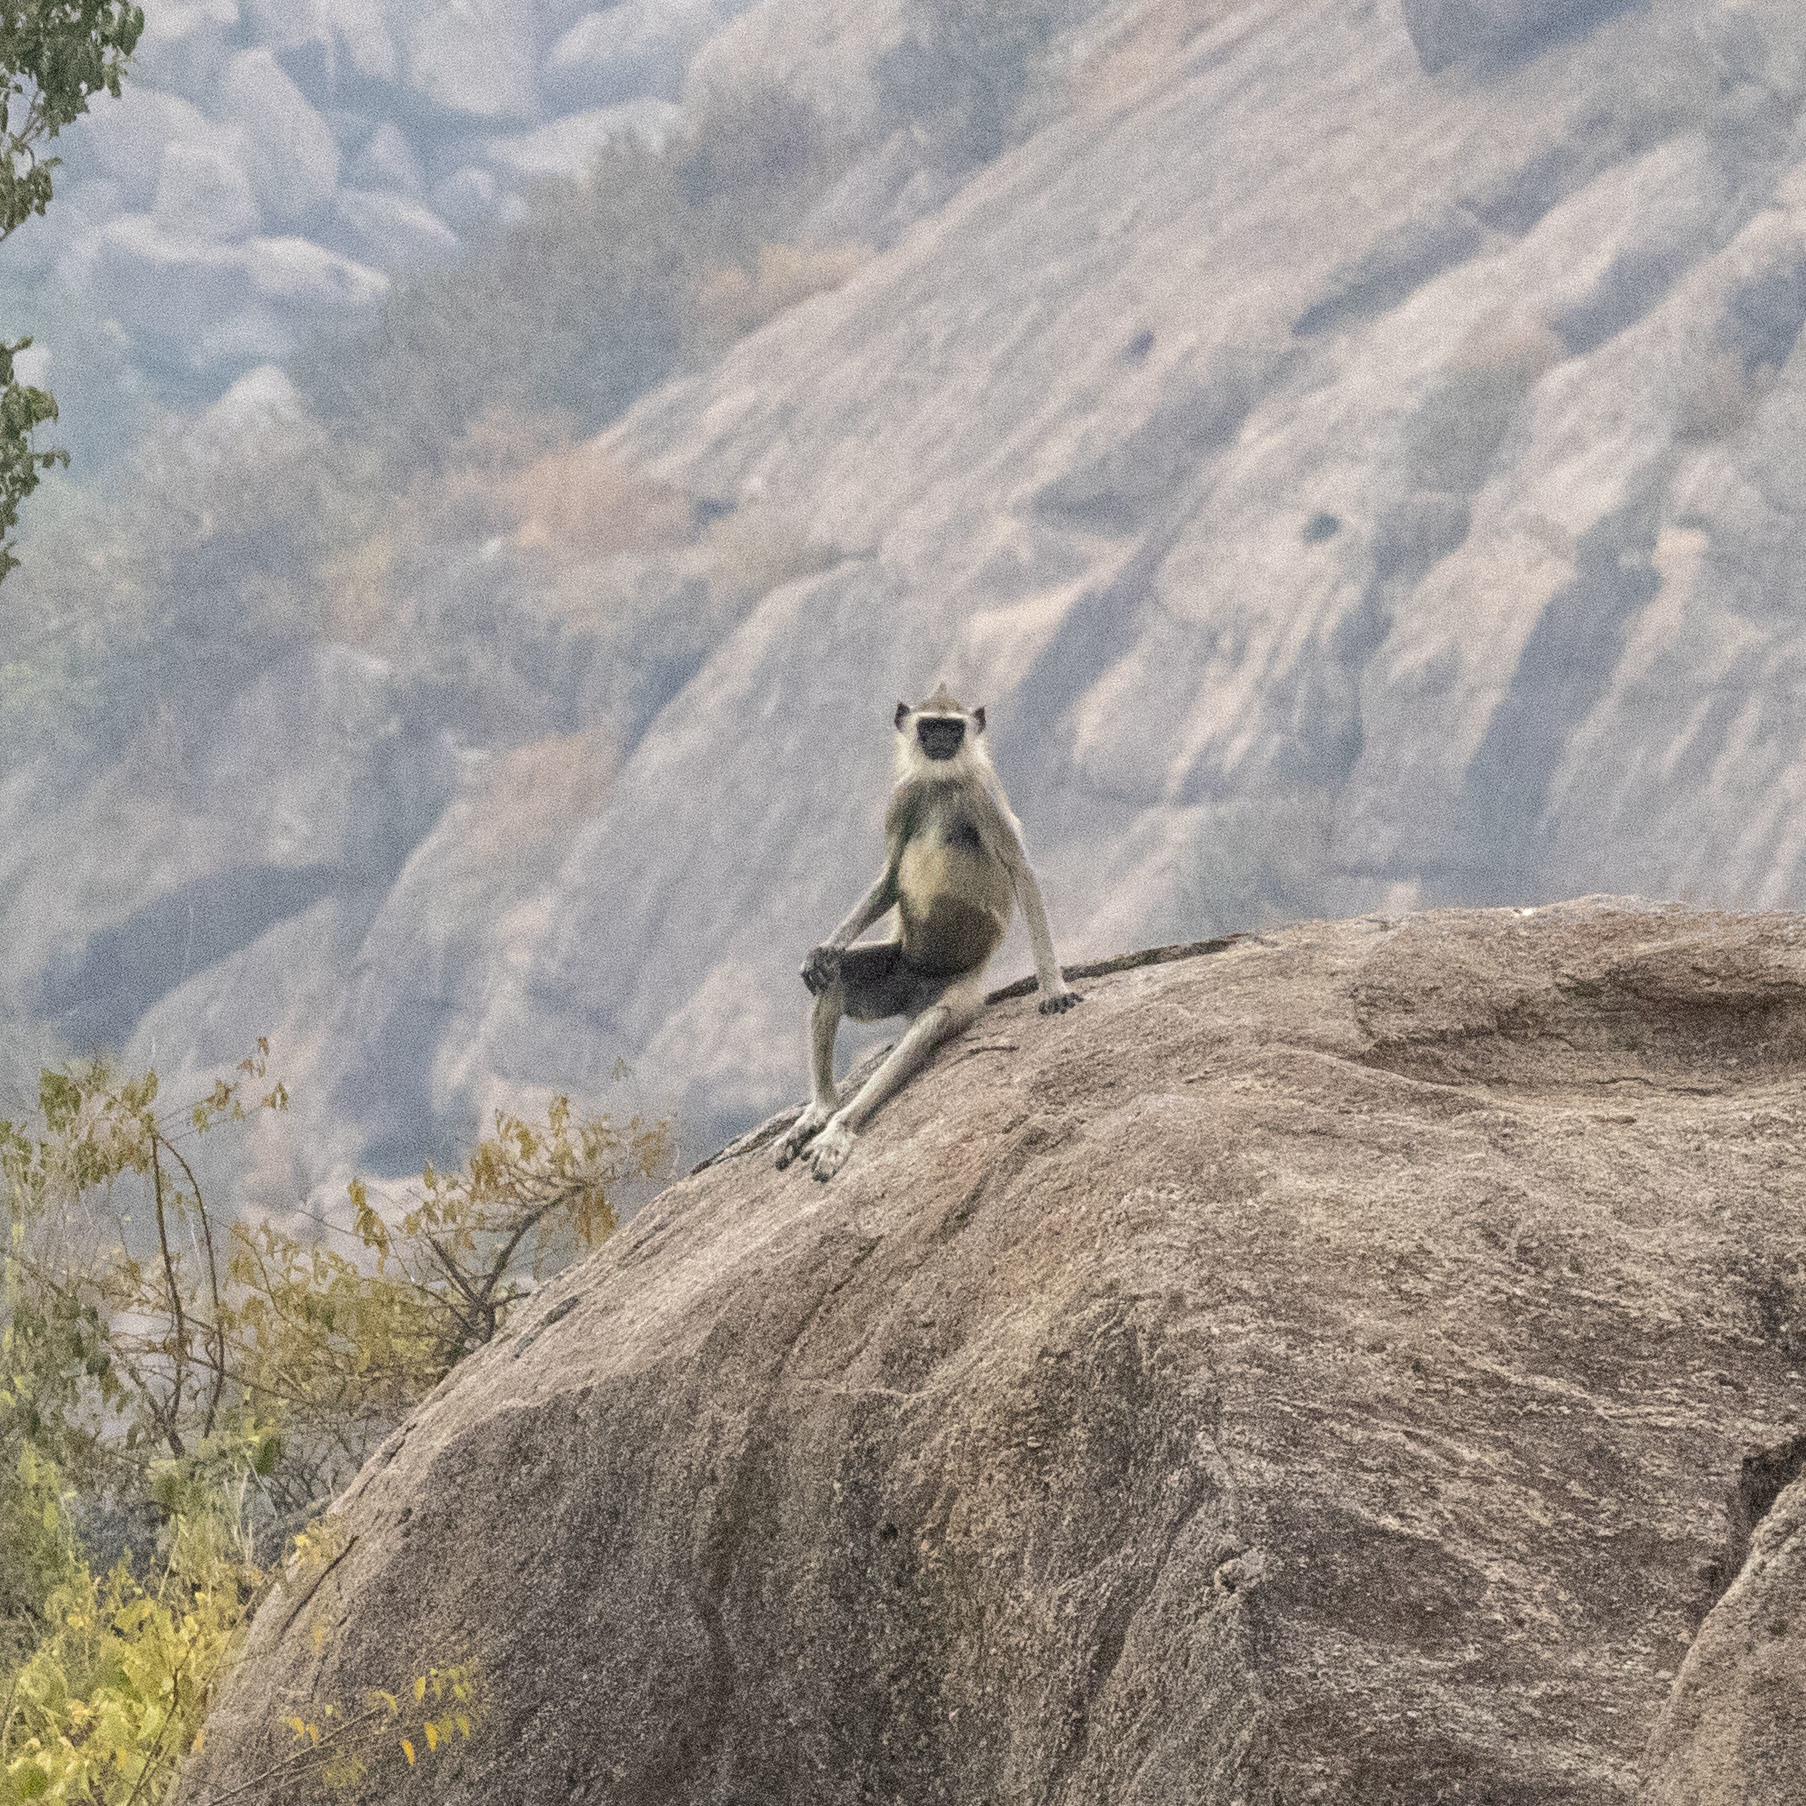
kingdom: Animalia
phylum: Chordata
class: Mammalia
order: Primates
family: Cercopithecidae
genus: Semnopithecus
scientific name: Semnopithecus priam
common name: Tufted gray langur
